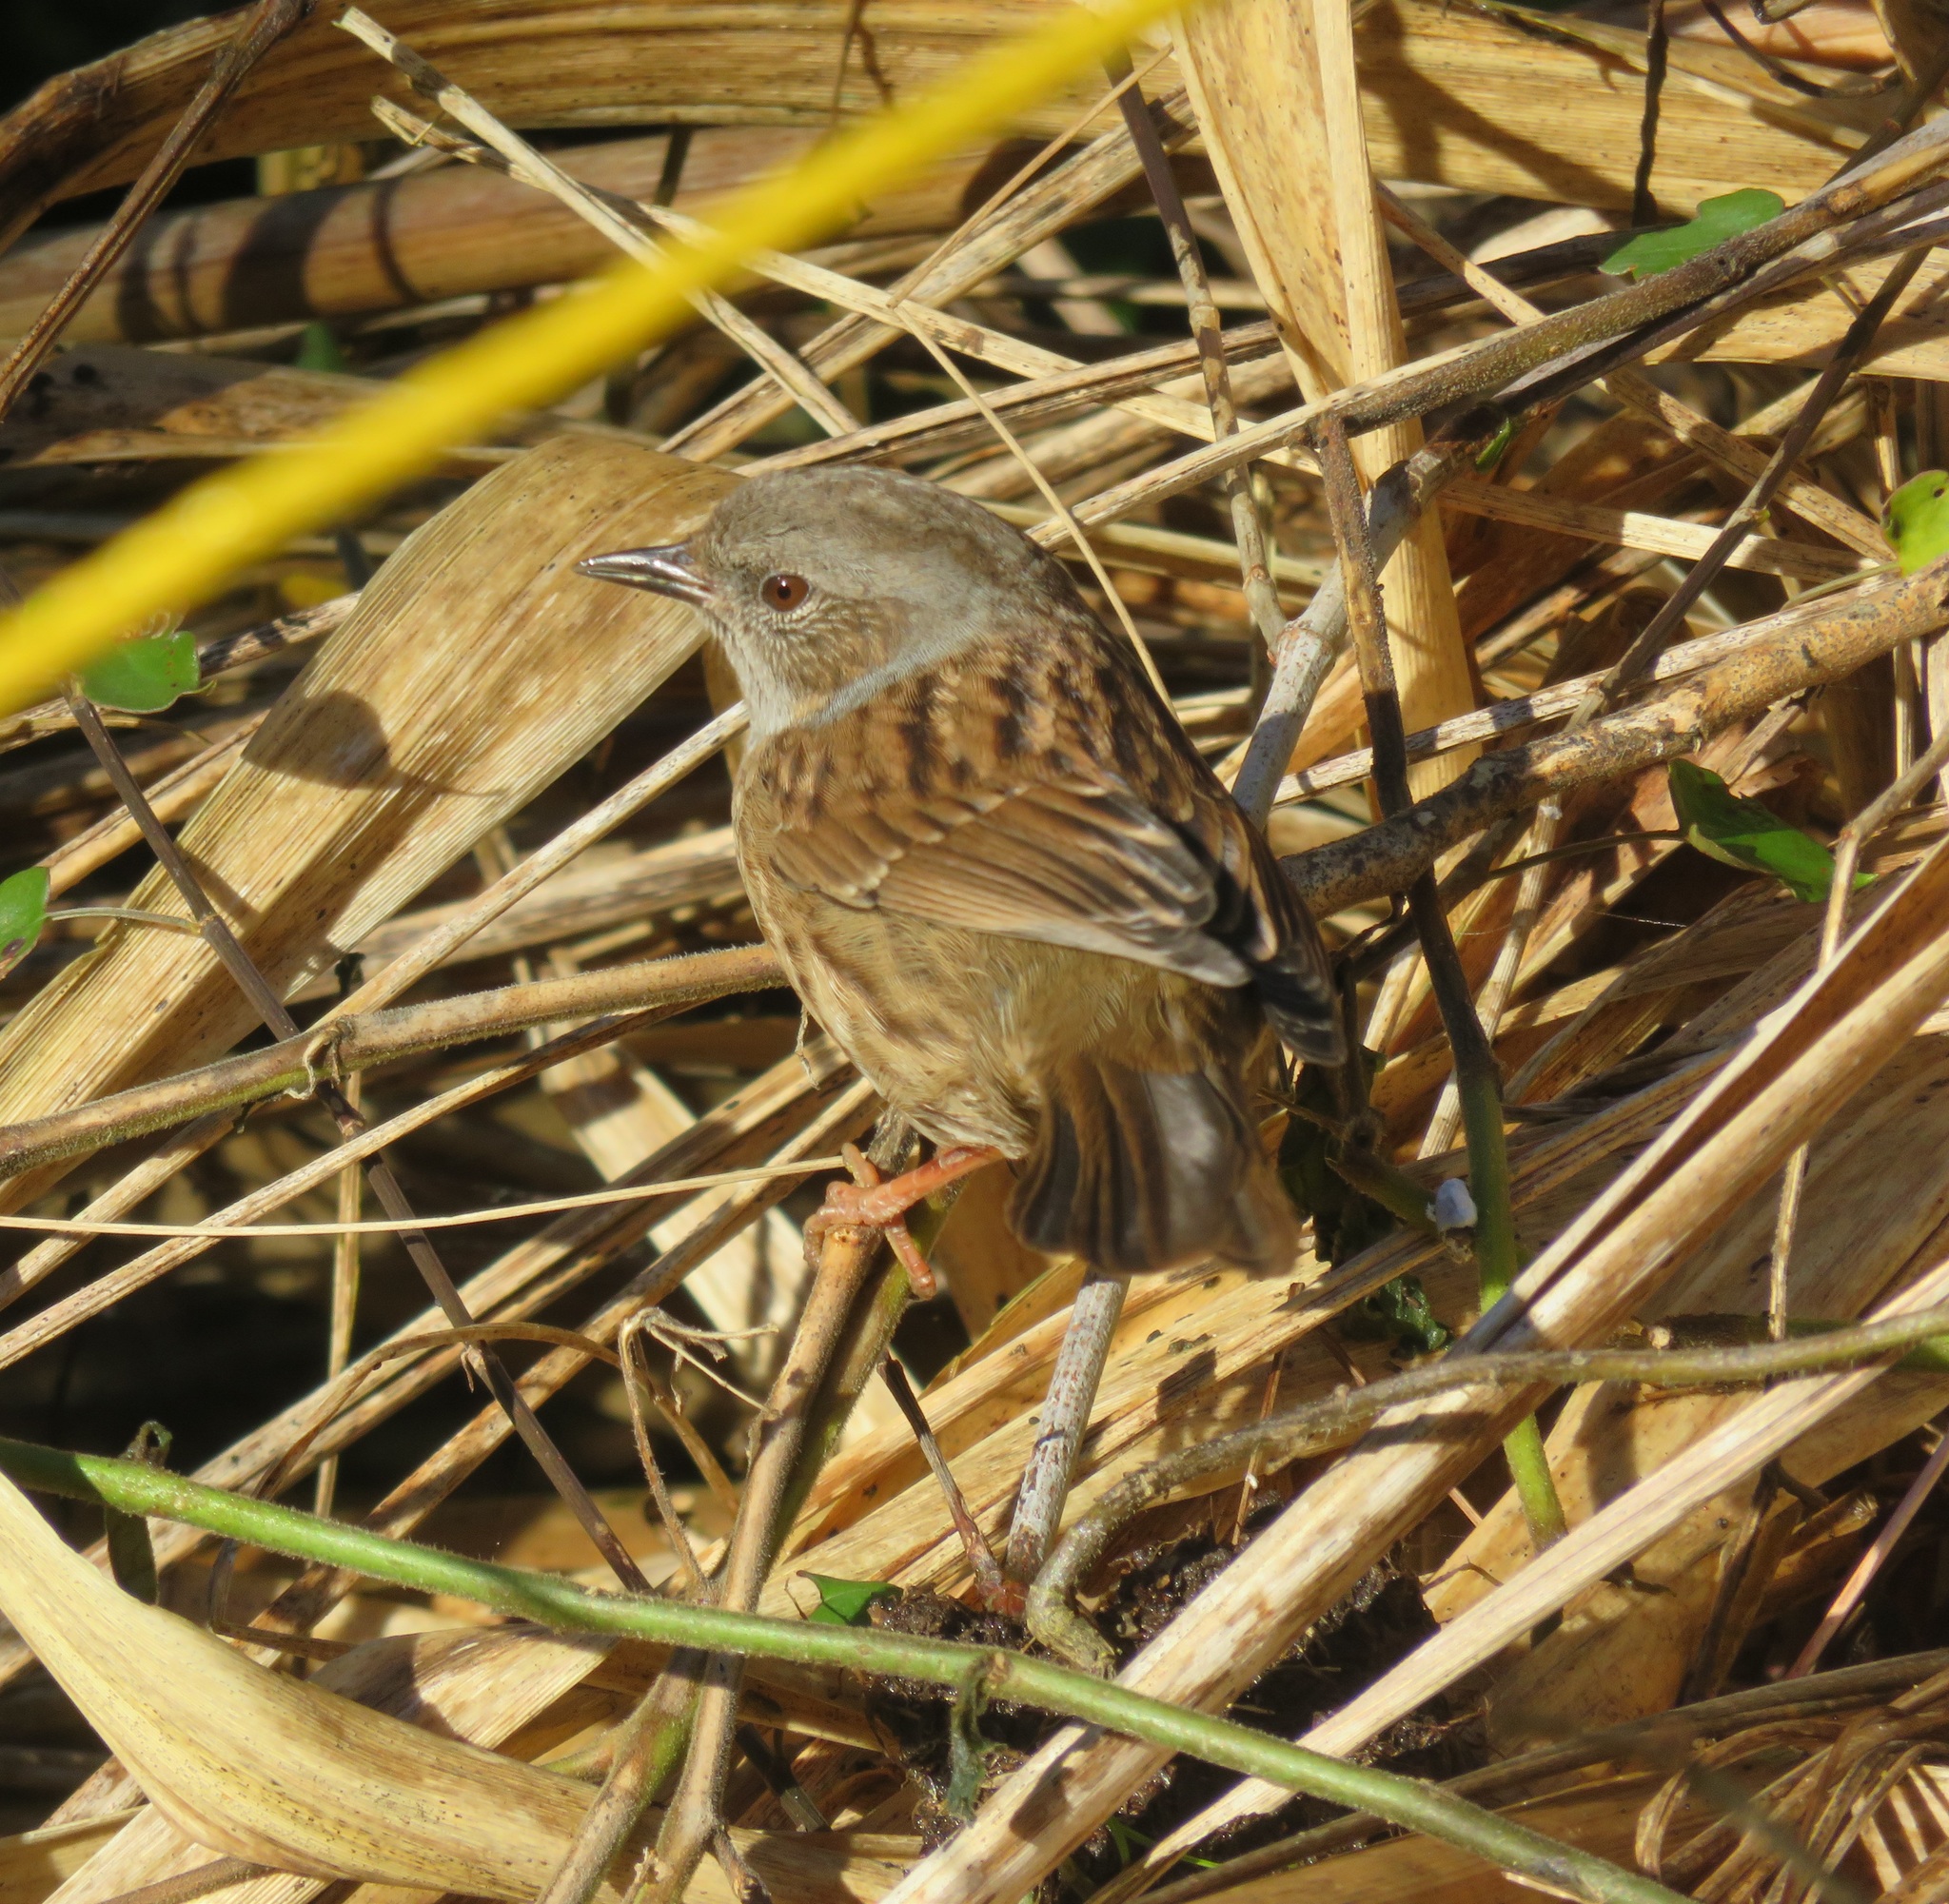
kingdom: Animalia
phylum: Chordata
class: Aves
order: Passeriformes
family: Prunellidae
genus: Prunella
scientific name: Prunella modularis
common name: Dunnock
